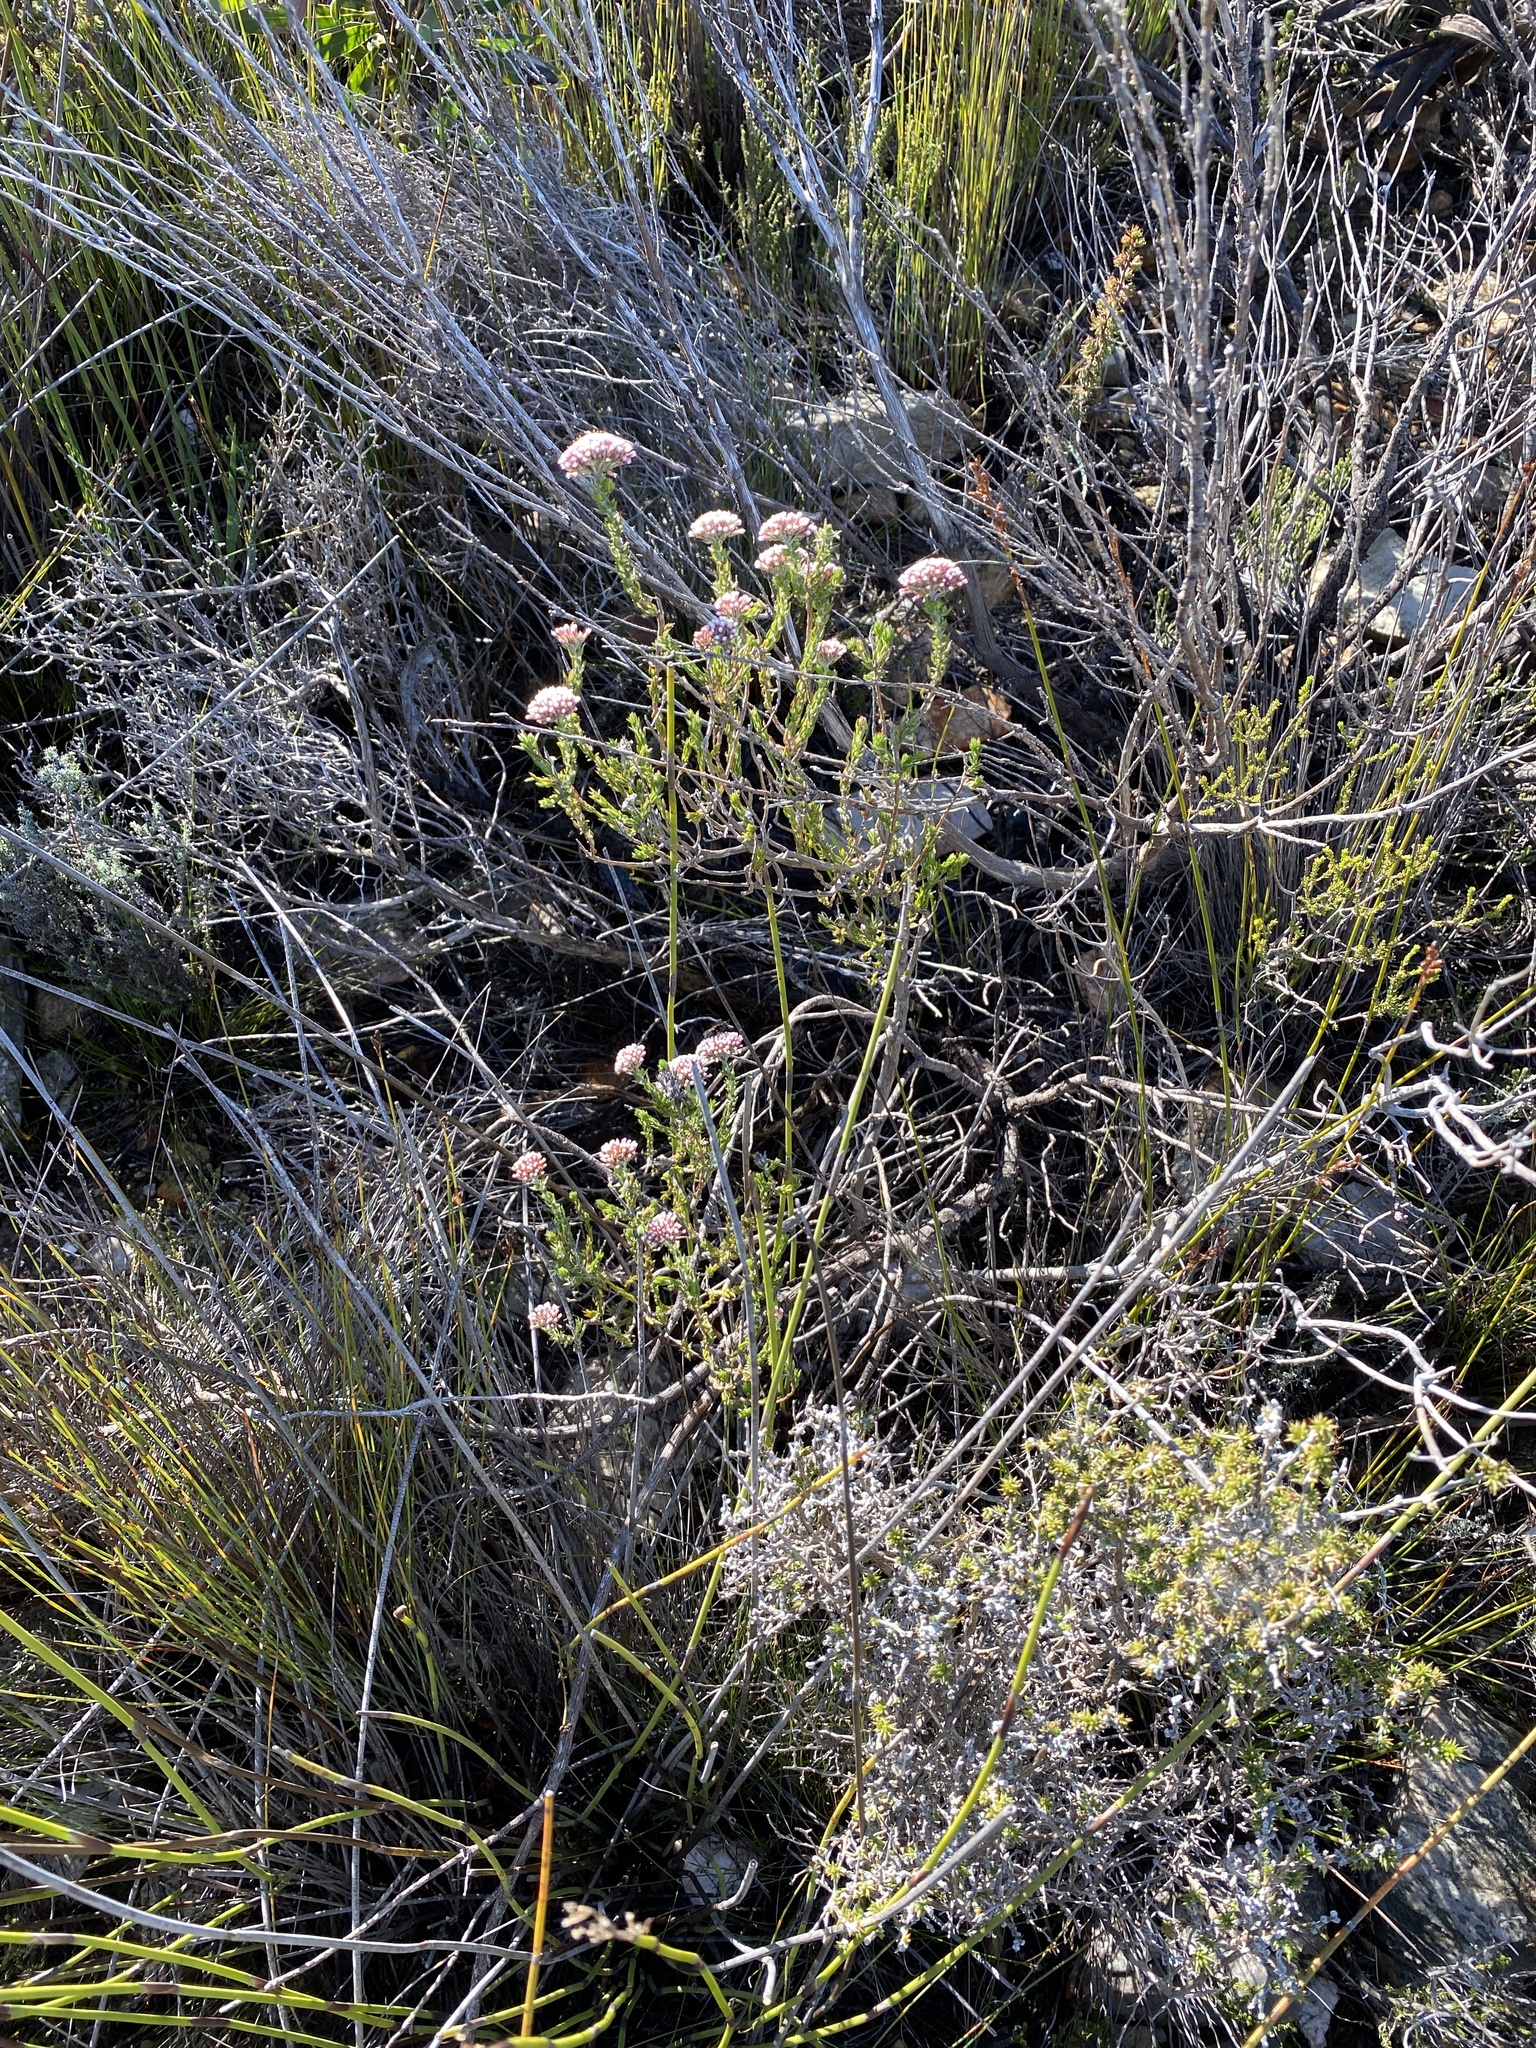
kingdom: Plantae
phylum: Tracheophyta
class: Magnoliopsida
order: Asterales
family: Asteraceae
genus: Metalasia
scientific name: Metalasia pungens
